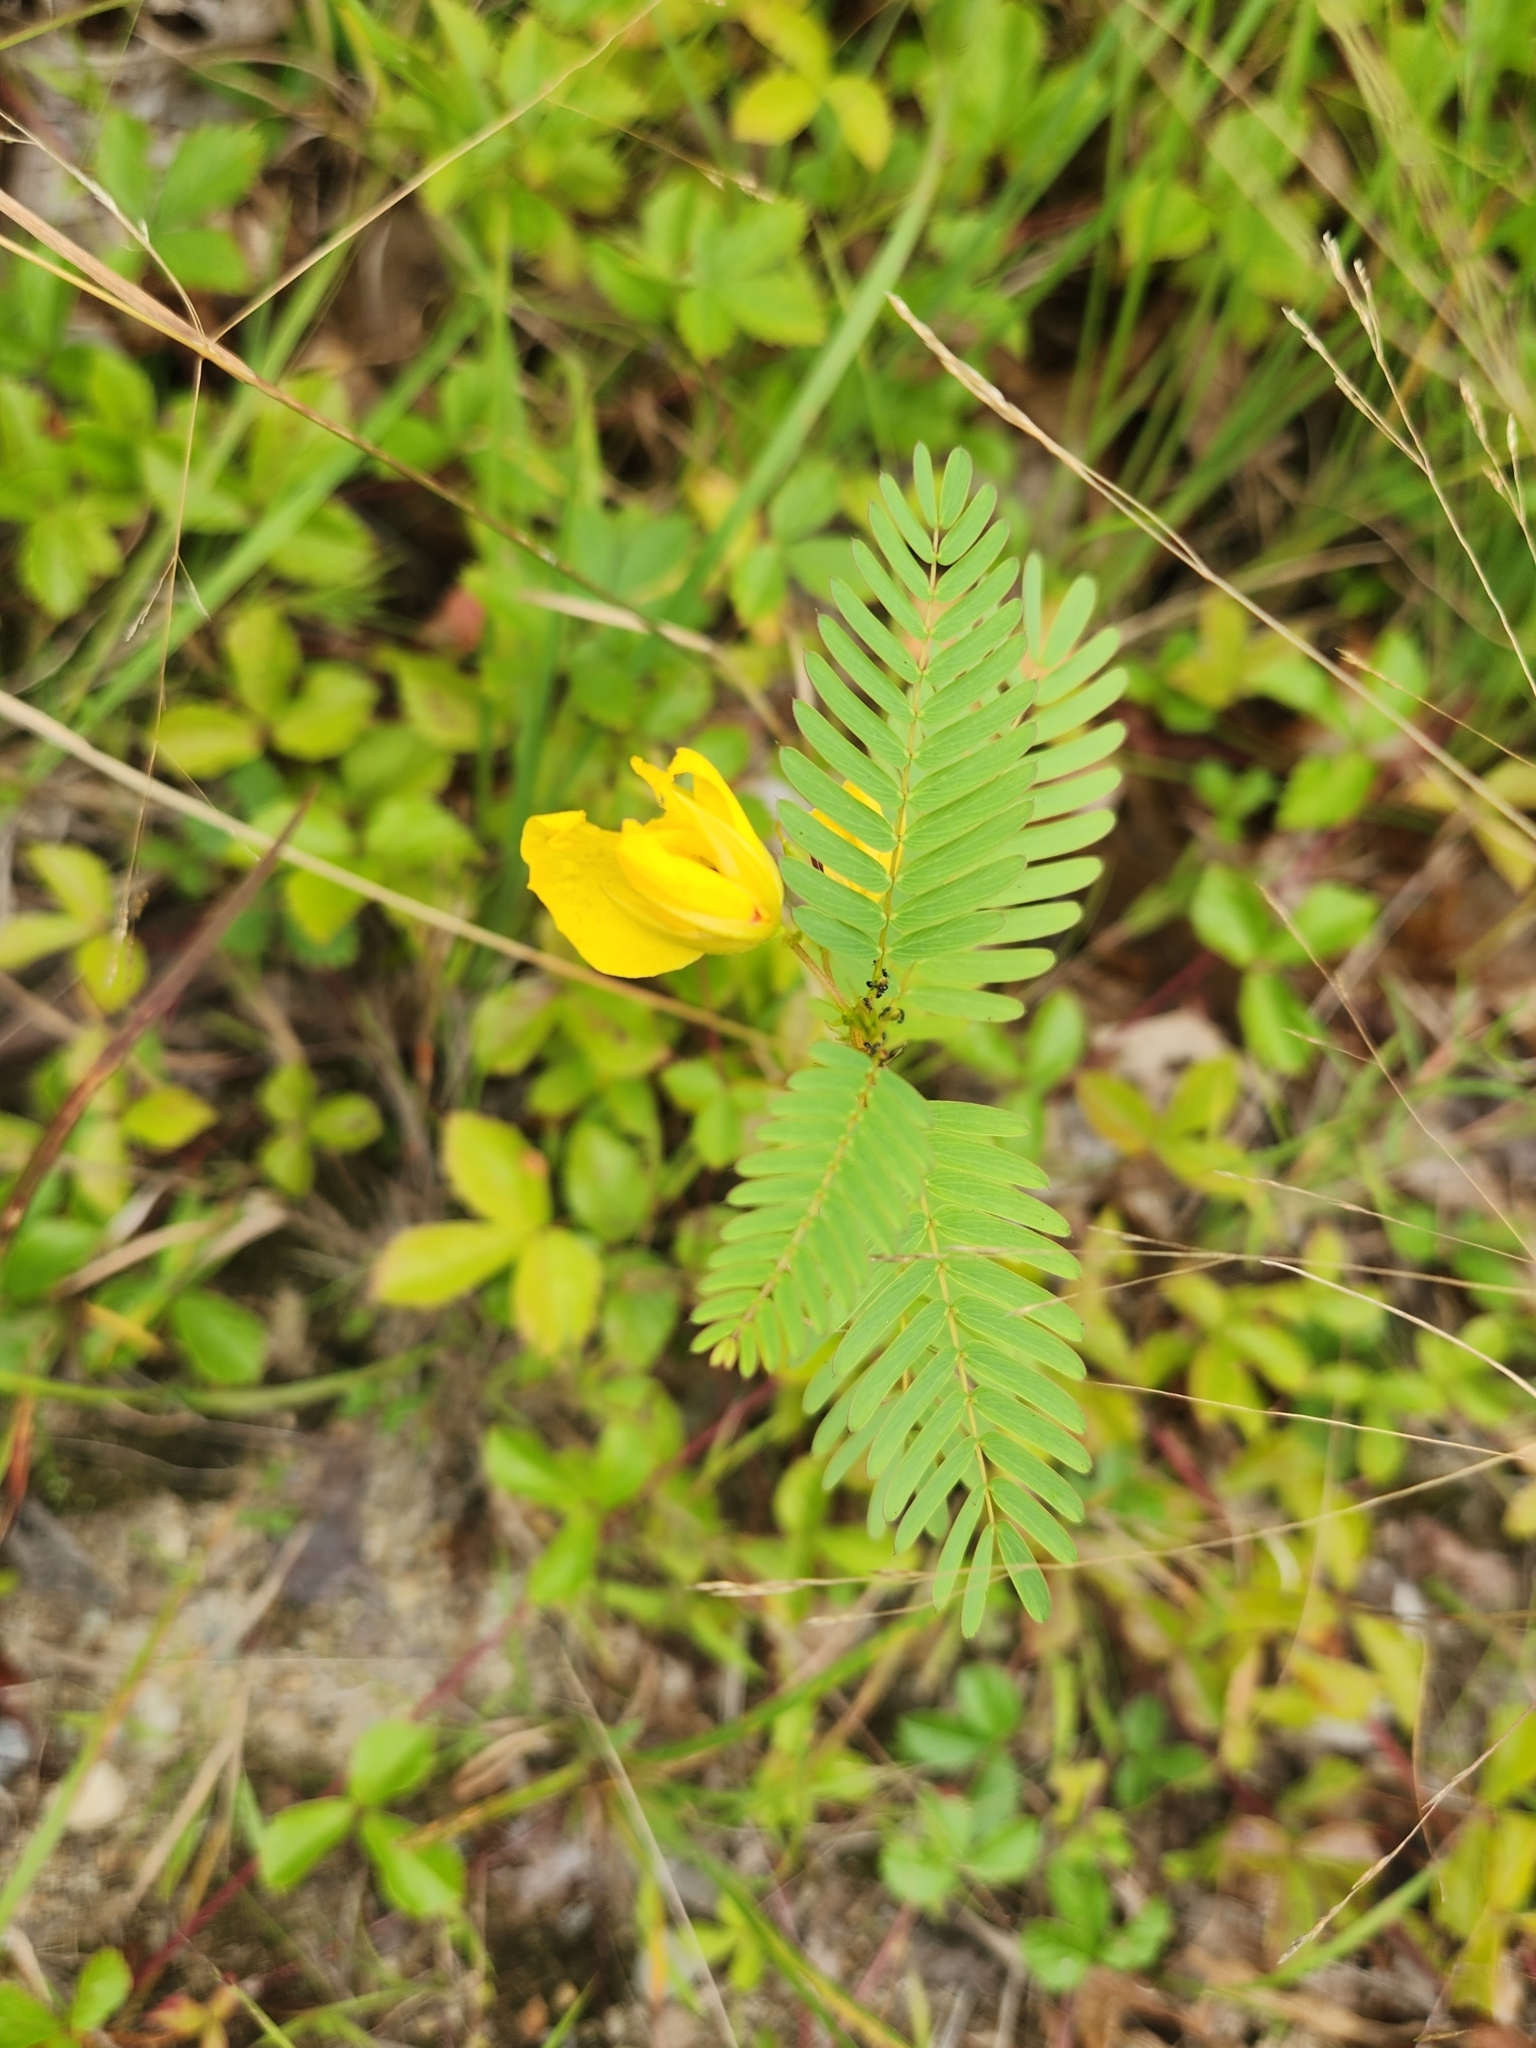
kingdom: Plantae
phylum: Tracheophyta
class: Magnoliopsida
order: Fabales
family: Fabaceae
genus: Chamaecrista
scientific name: Chamaecrista fasciculata
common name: Golden cassia
